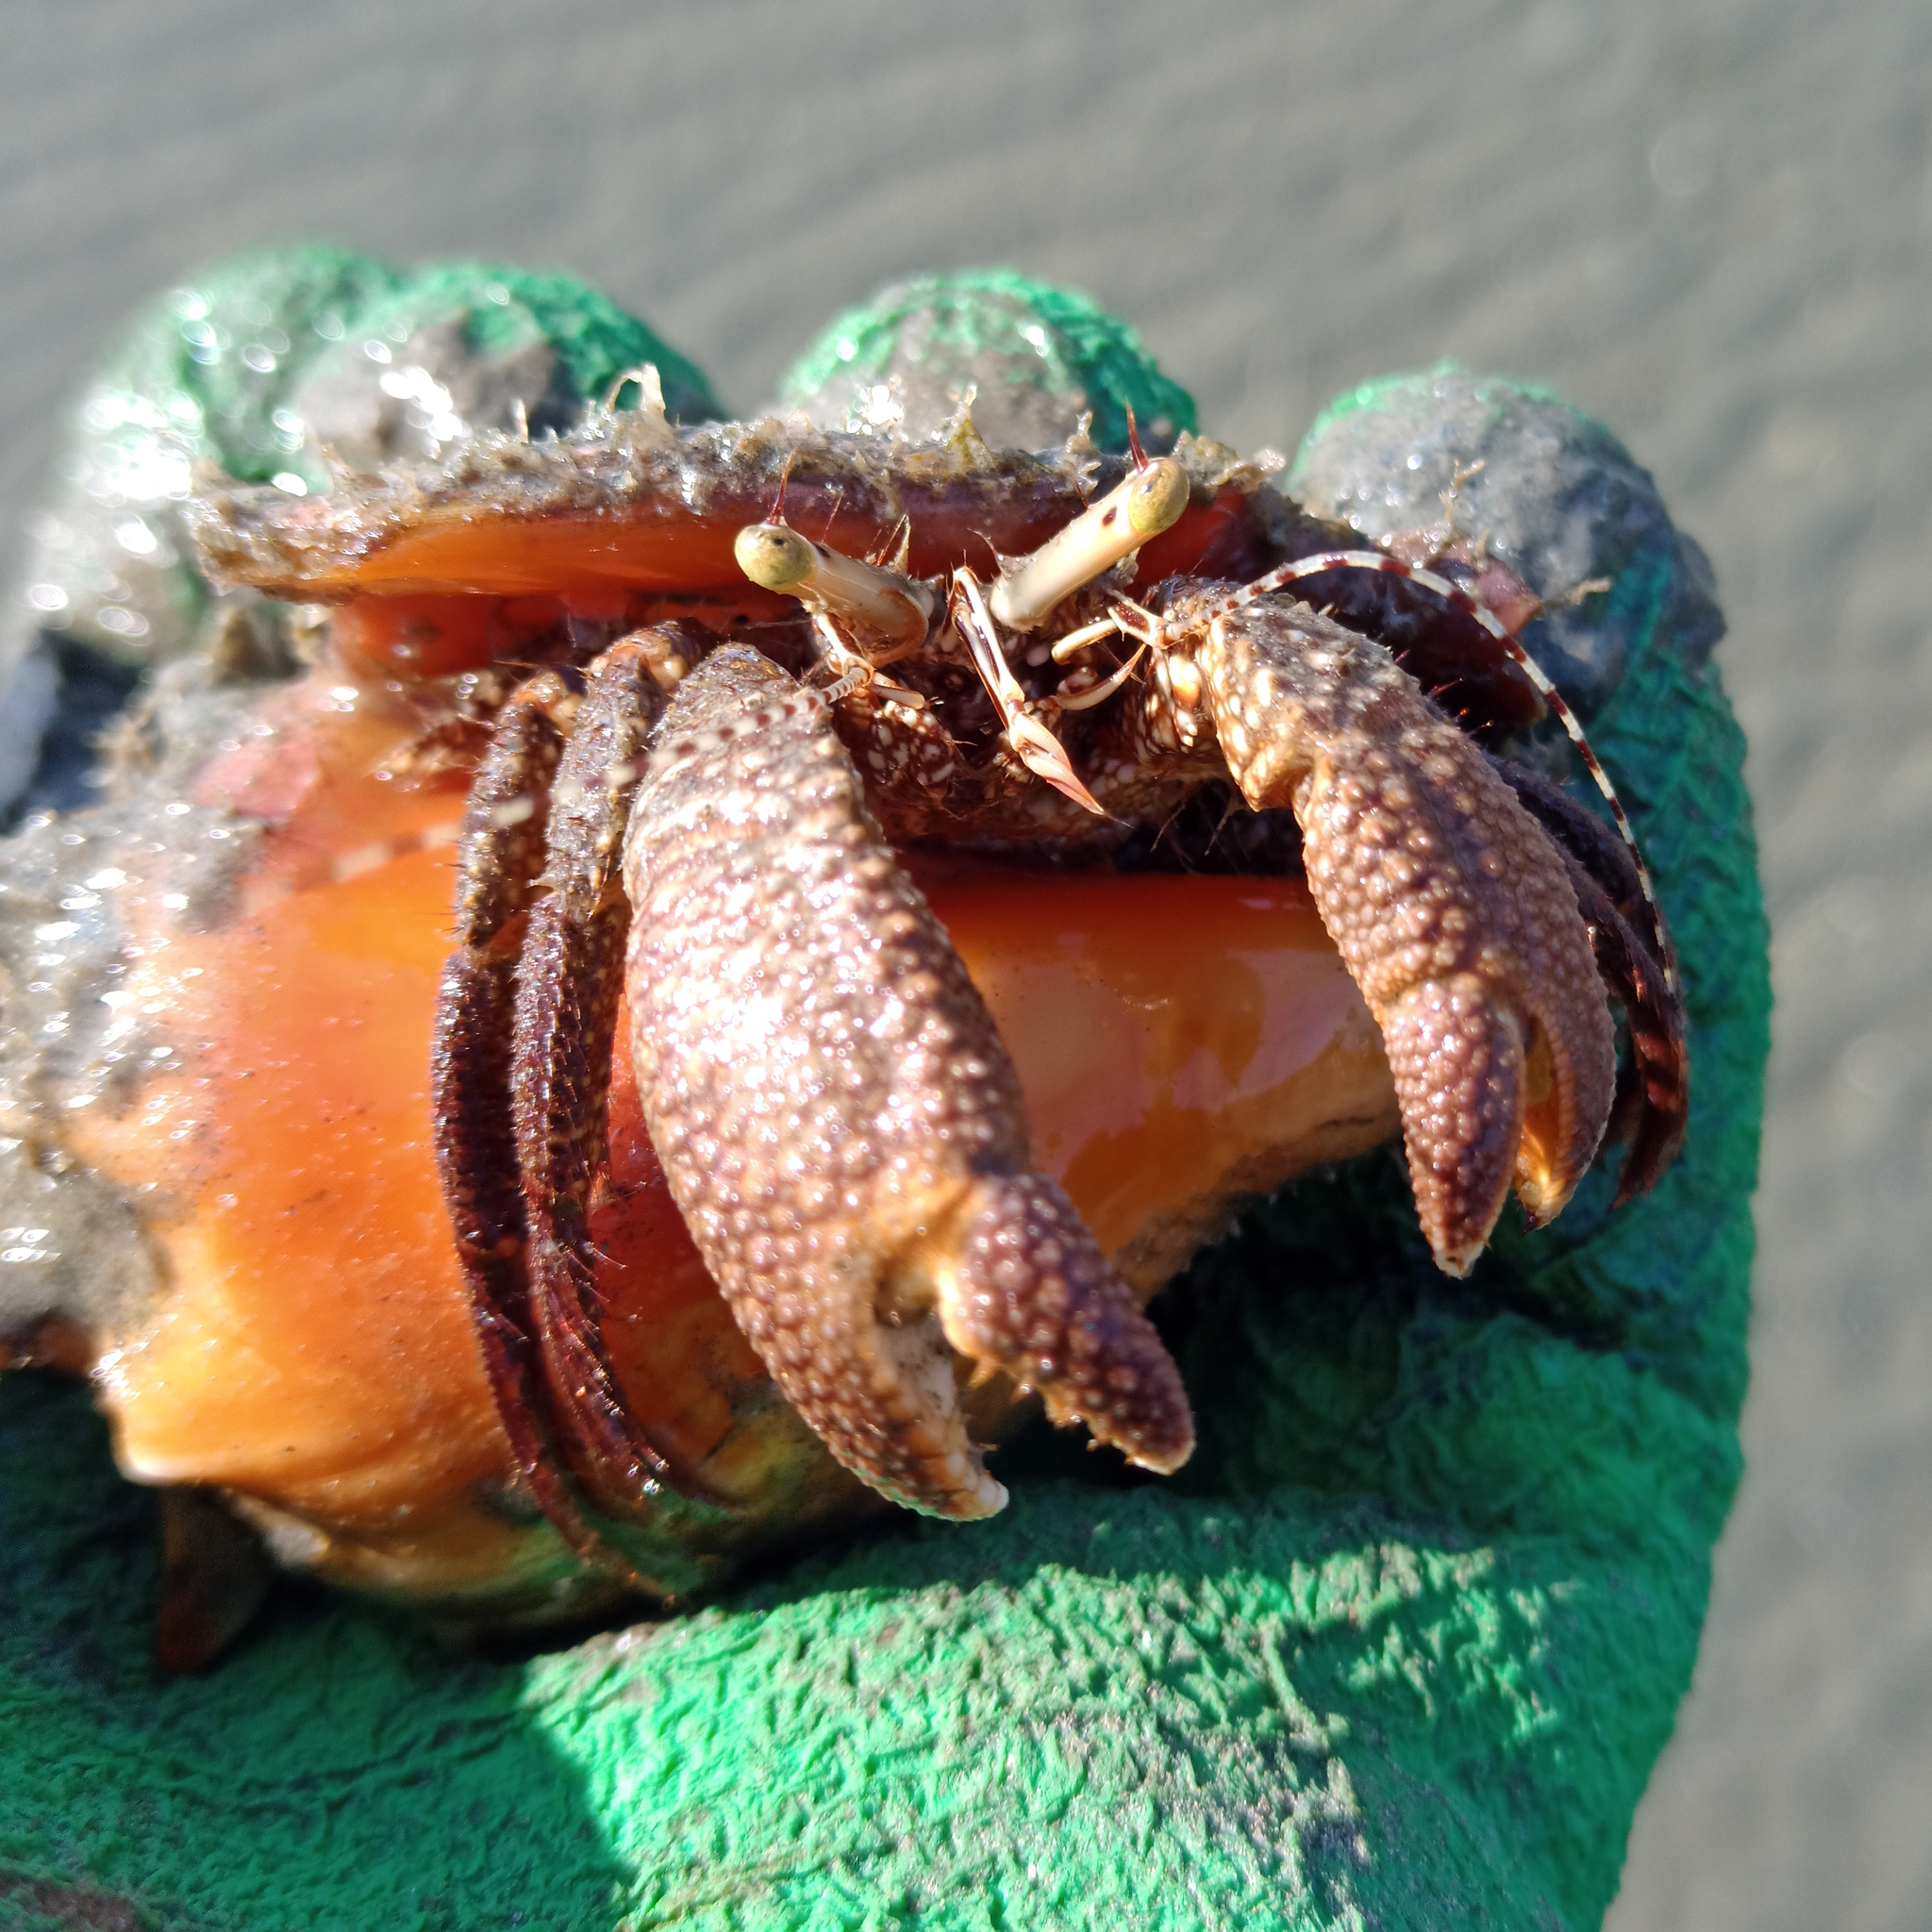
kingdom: Animalia
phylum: Arthropoda
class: Malacostraca
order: Decapoda
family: Diogenidae
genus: Petrochirus
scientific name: Petrochirus diogenes
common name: Giant hermit crab
